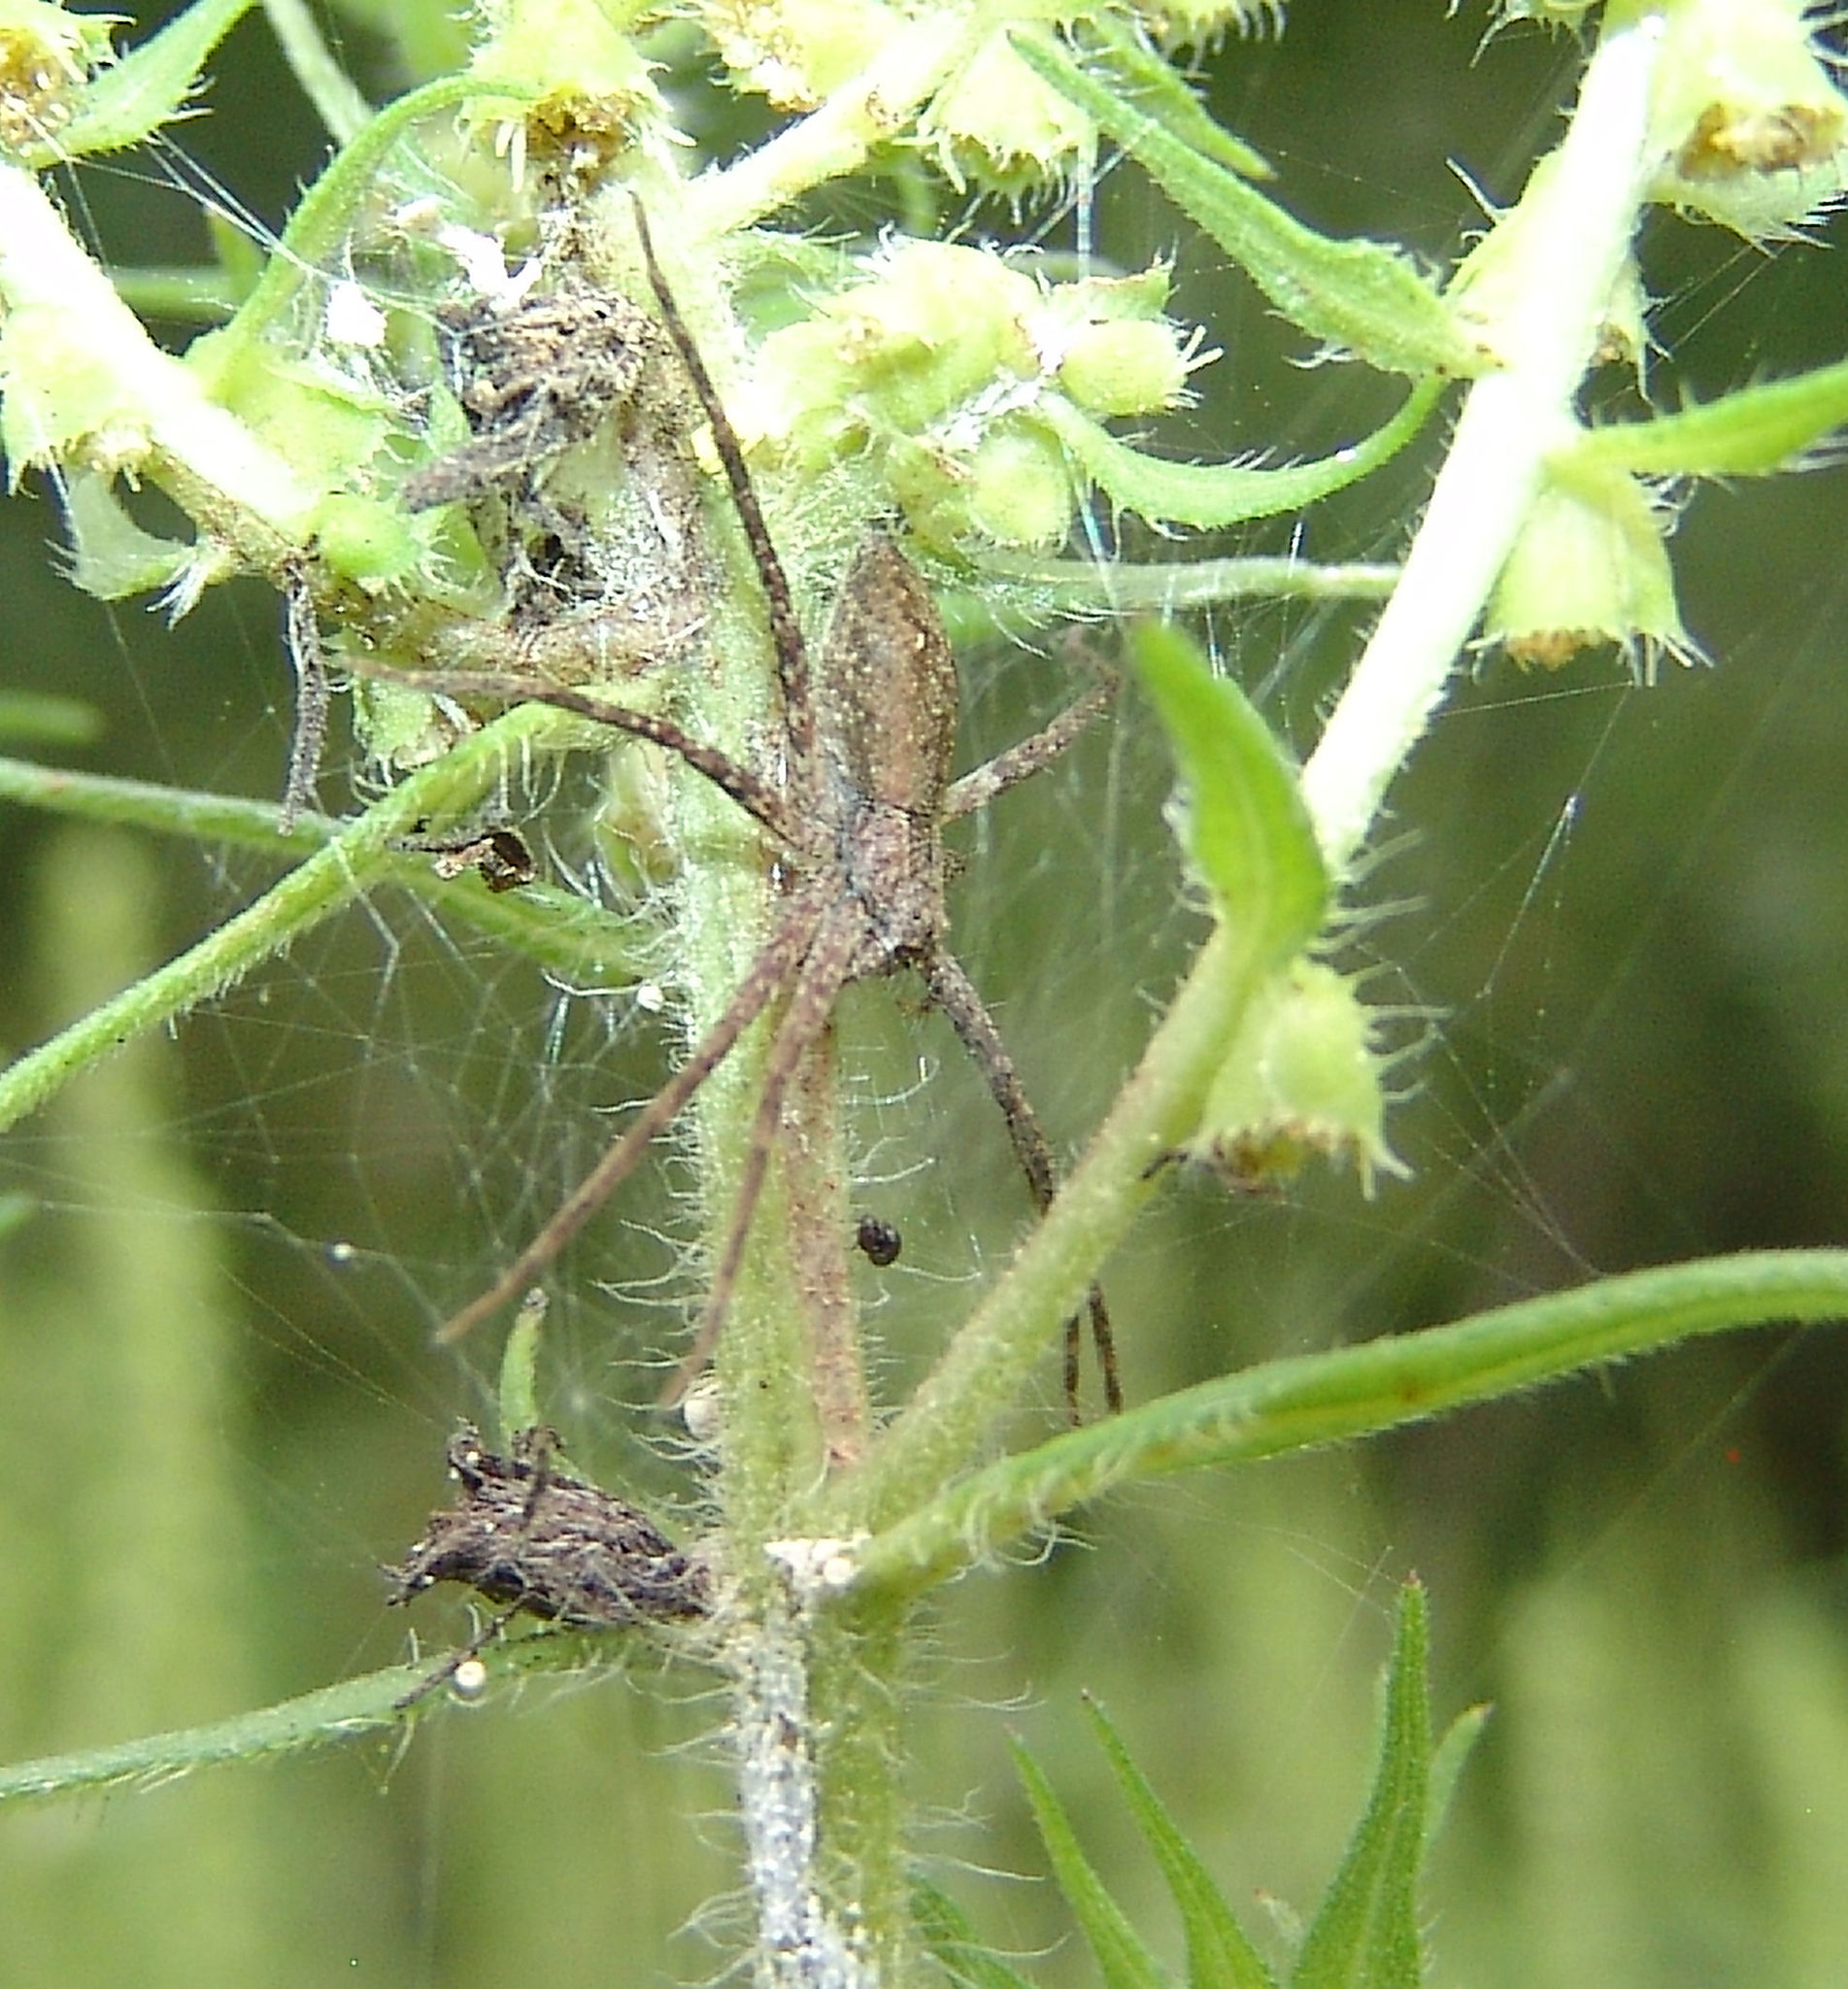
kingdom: Animalia
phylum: Arthropoda
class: Arachnida
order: Araneae
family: Pisauridae
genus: Pisaurina
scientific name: Pisaurina mira
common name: American nursery web spider
